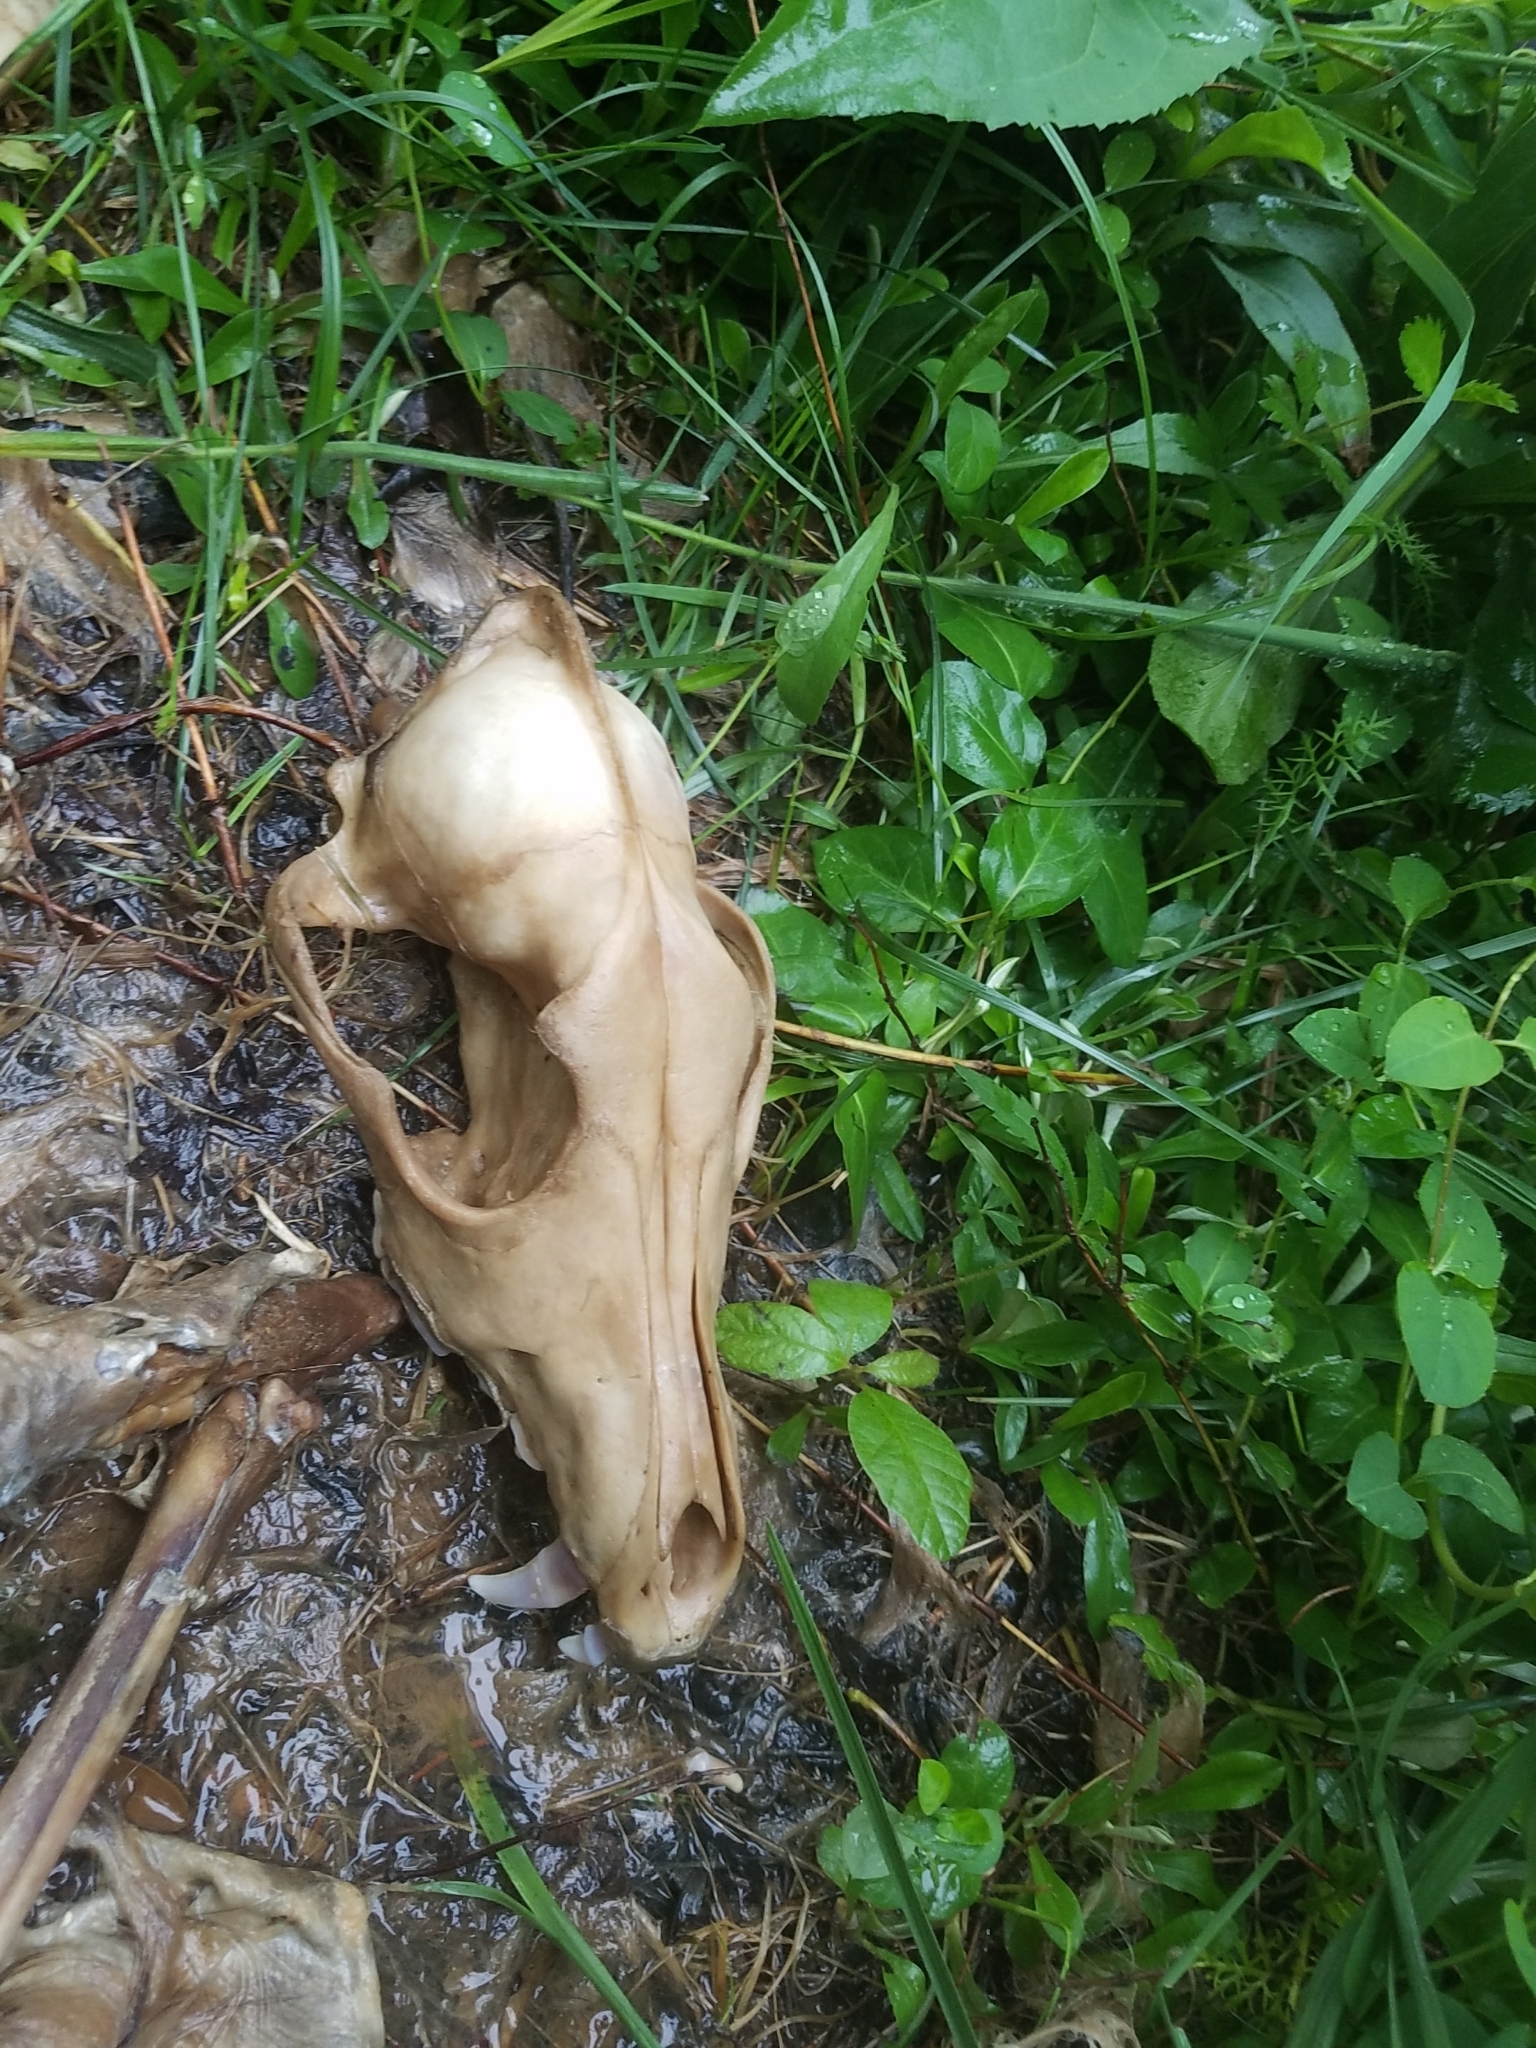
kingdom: Animalia
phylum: Chordata
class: Mammalia
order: Carnivora
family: Canidae
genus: Canis
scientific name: Canis latrans
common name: Coyote
